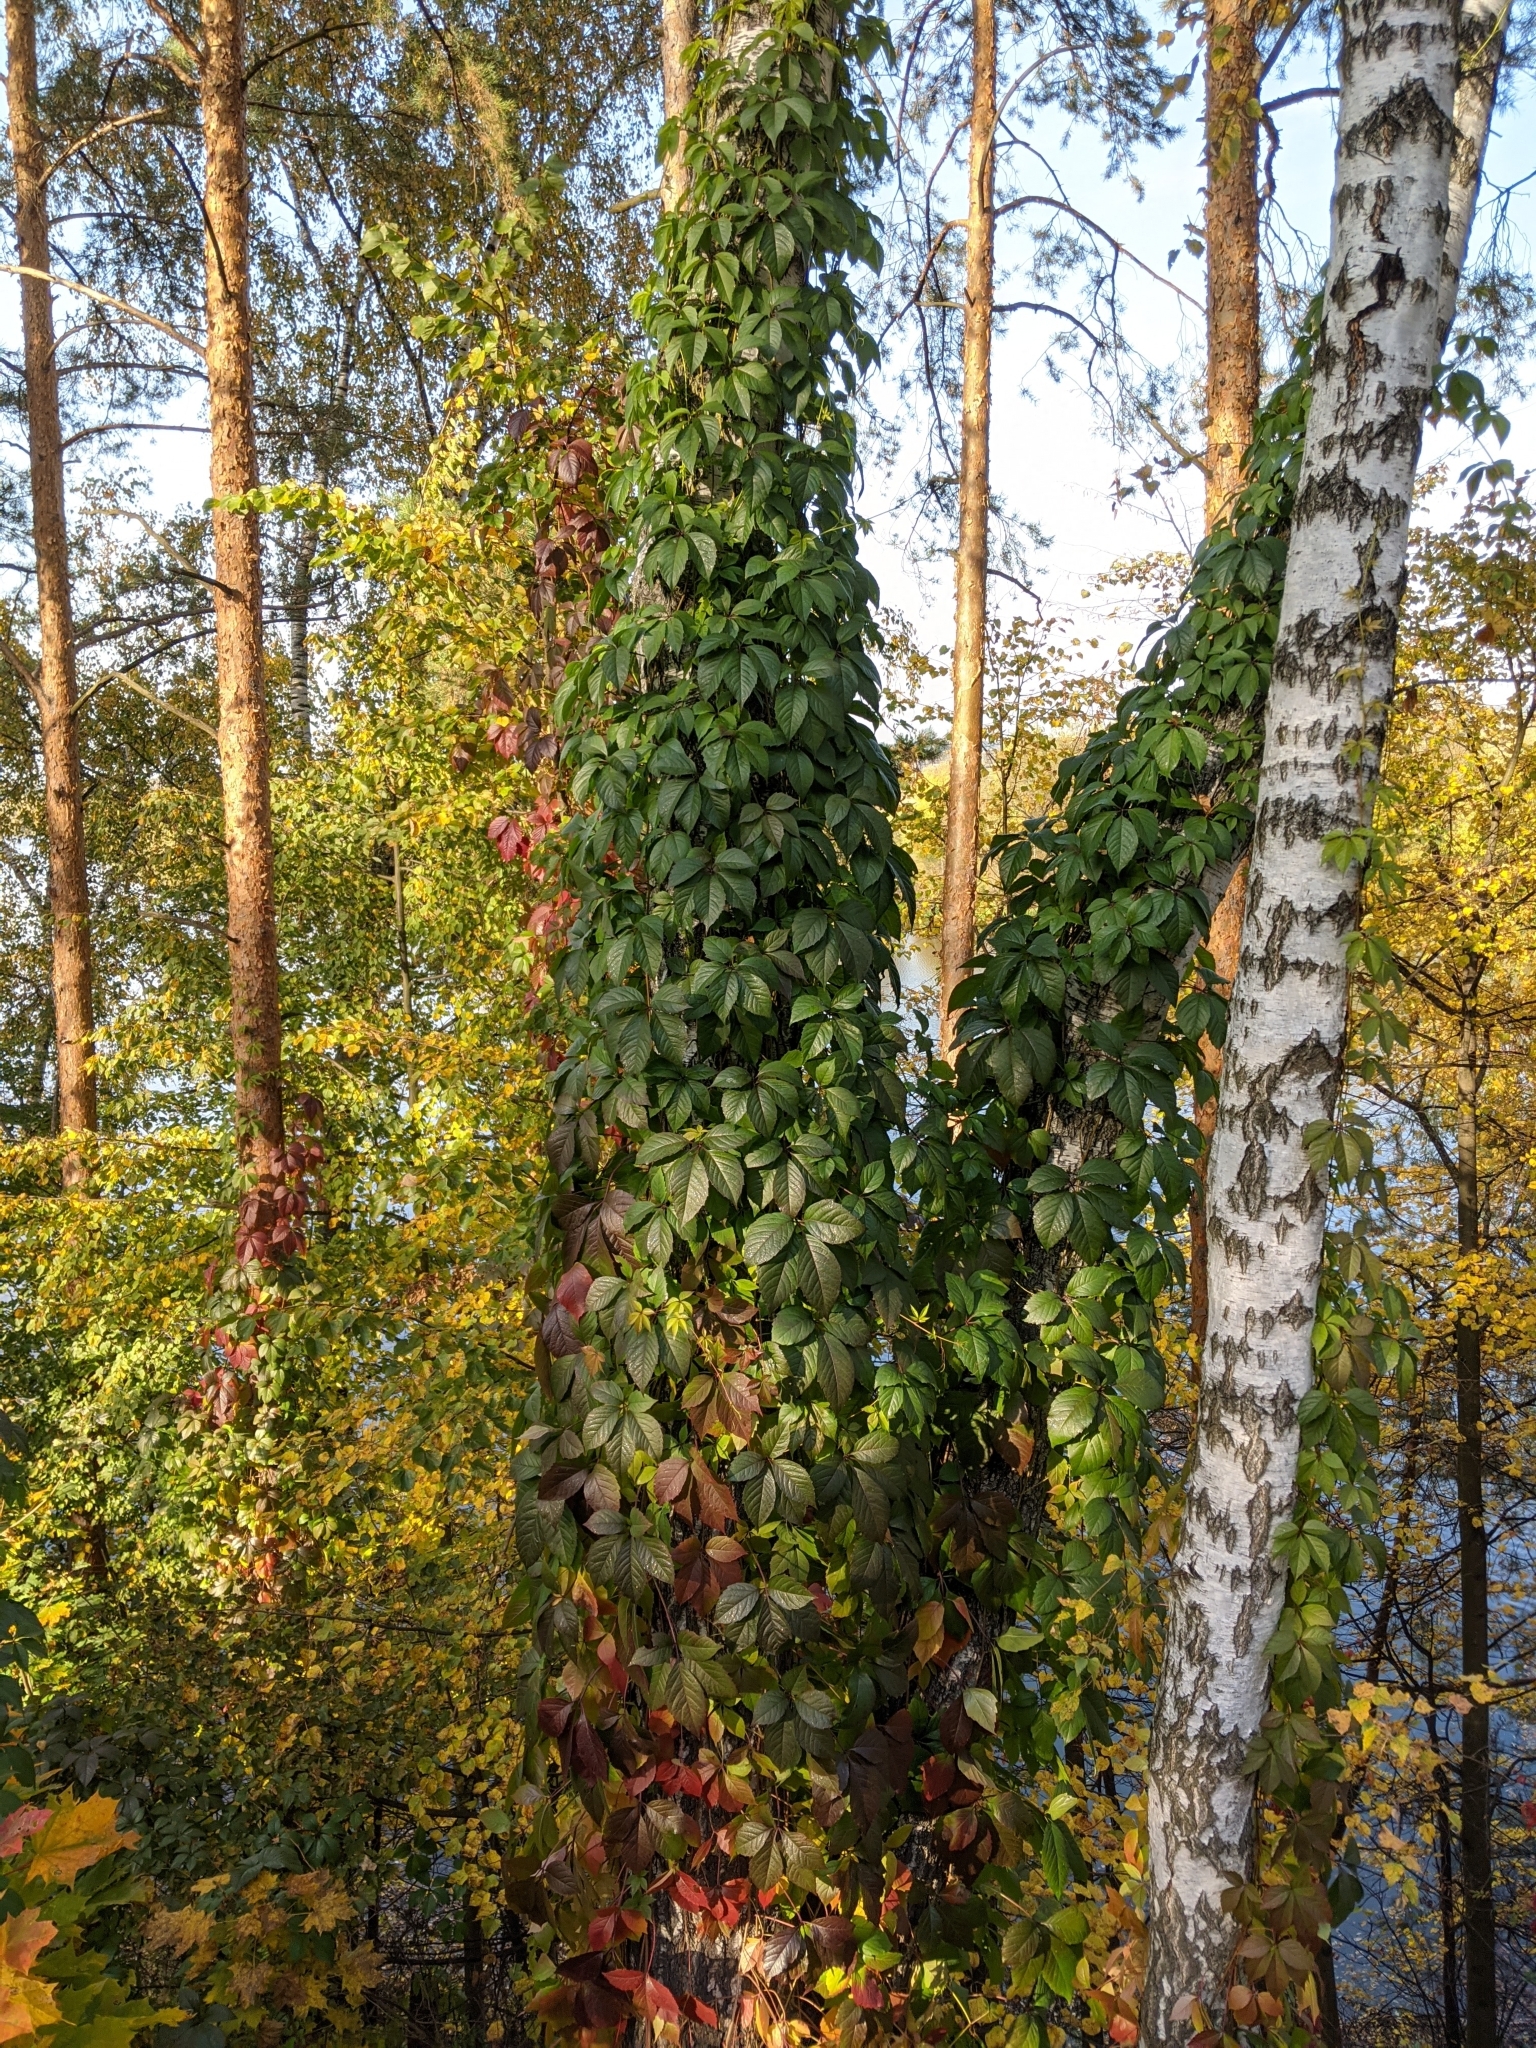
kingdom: Plantae
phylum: Tracheophyta
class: Magnoliopsida
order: Vitales
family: Vitaceae
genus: Parthenocissus
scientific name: Parthenocissus inserta
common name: False virginia-creeper
